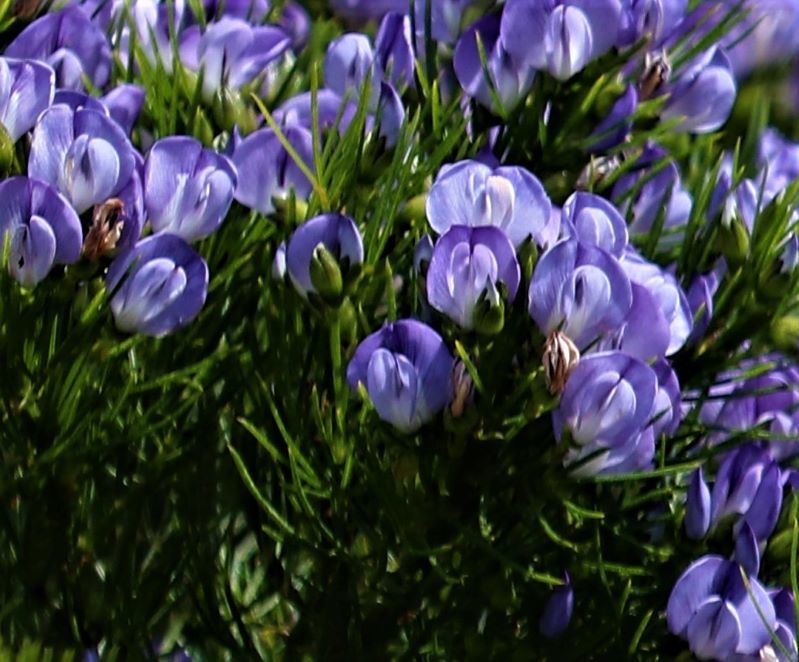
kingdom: Plantae
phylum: Tracheophyta
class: Magnoliopsida
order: Fabales
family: Fabaceae
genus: Psoralea
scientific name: Psoralea affinis
